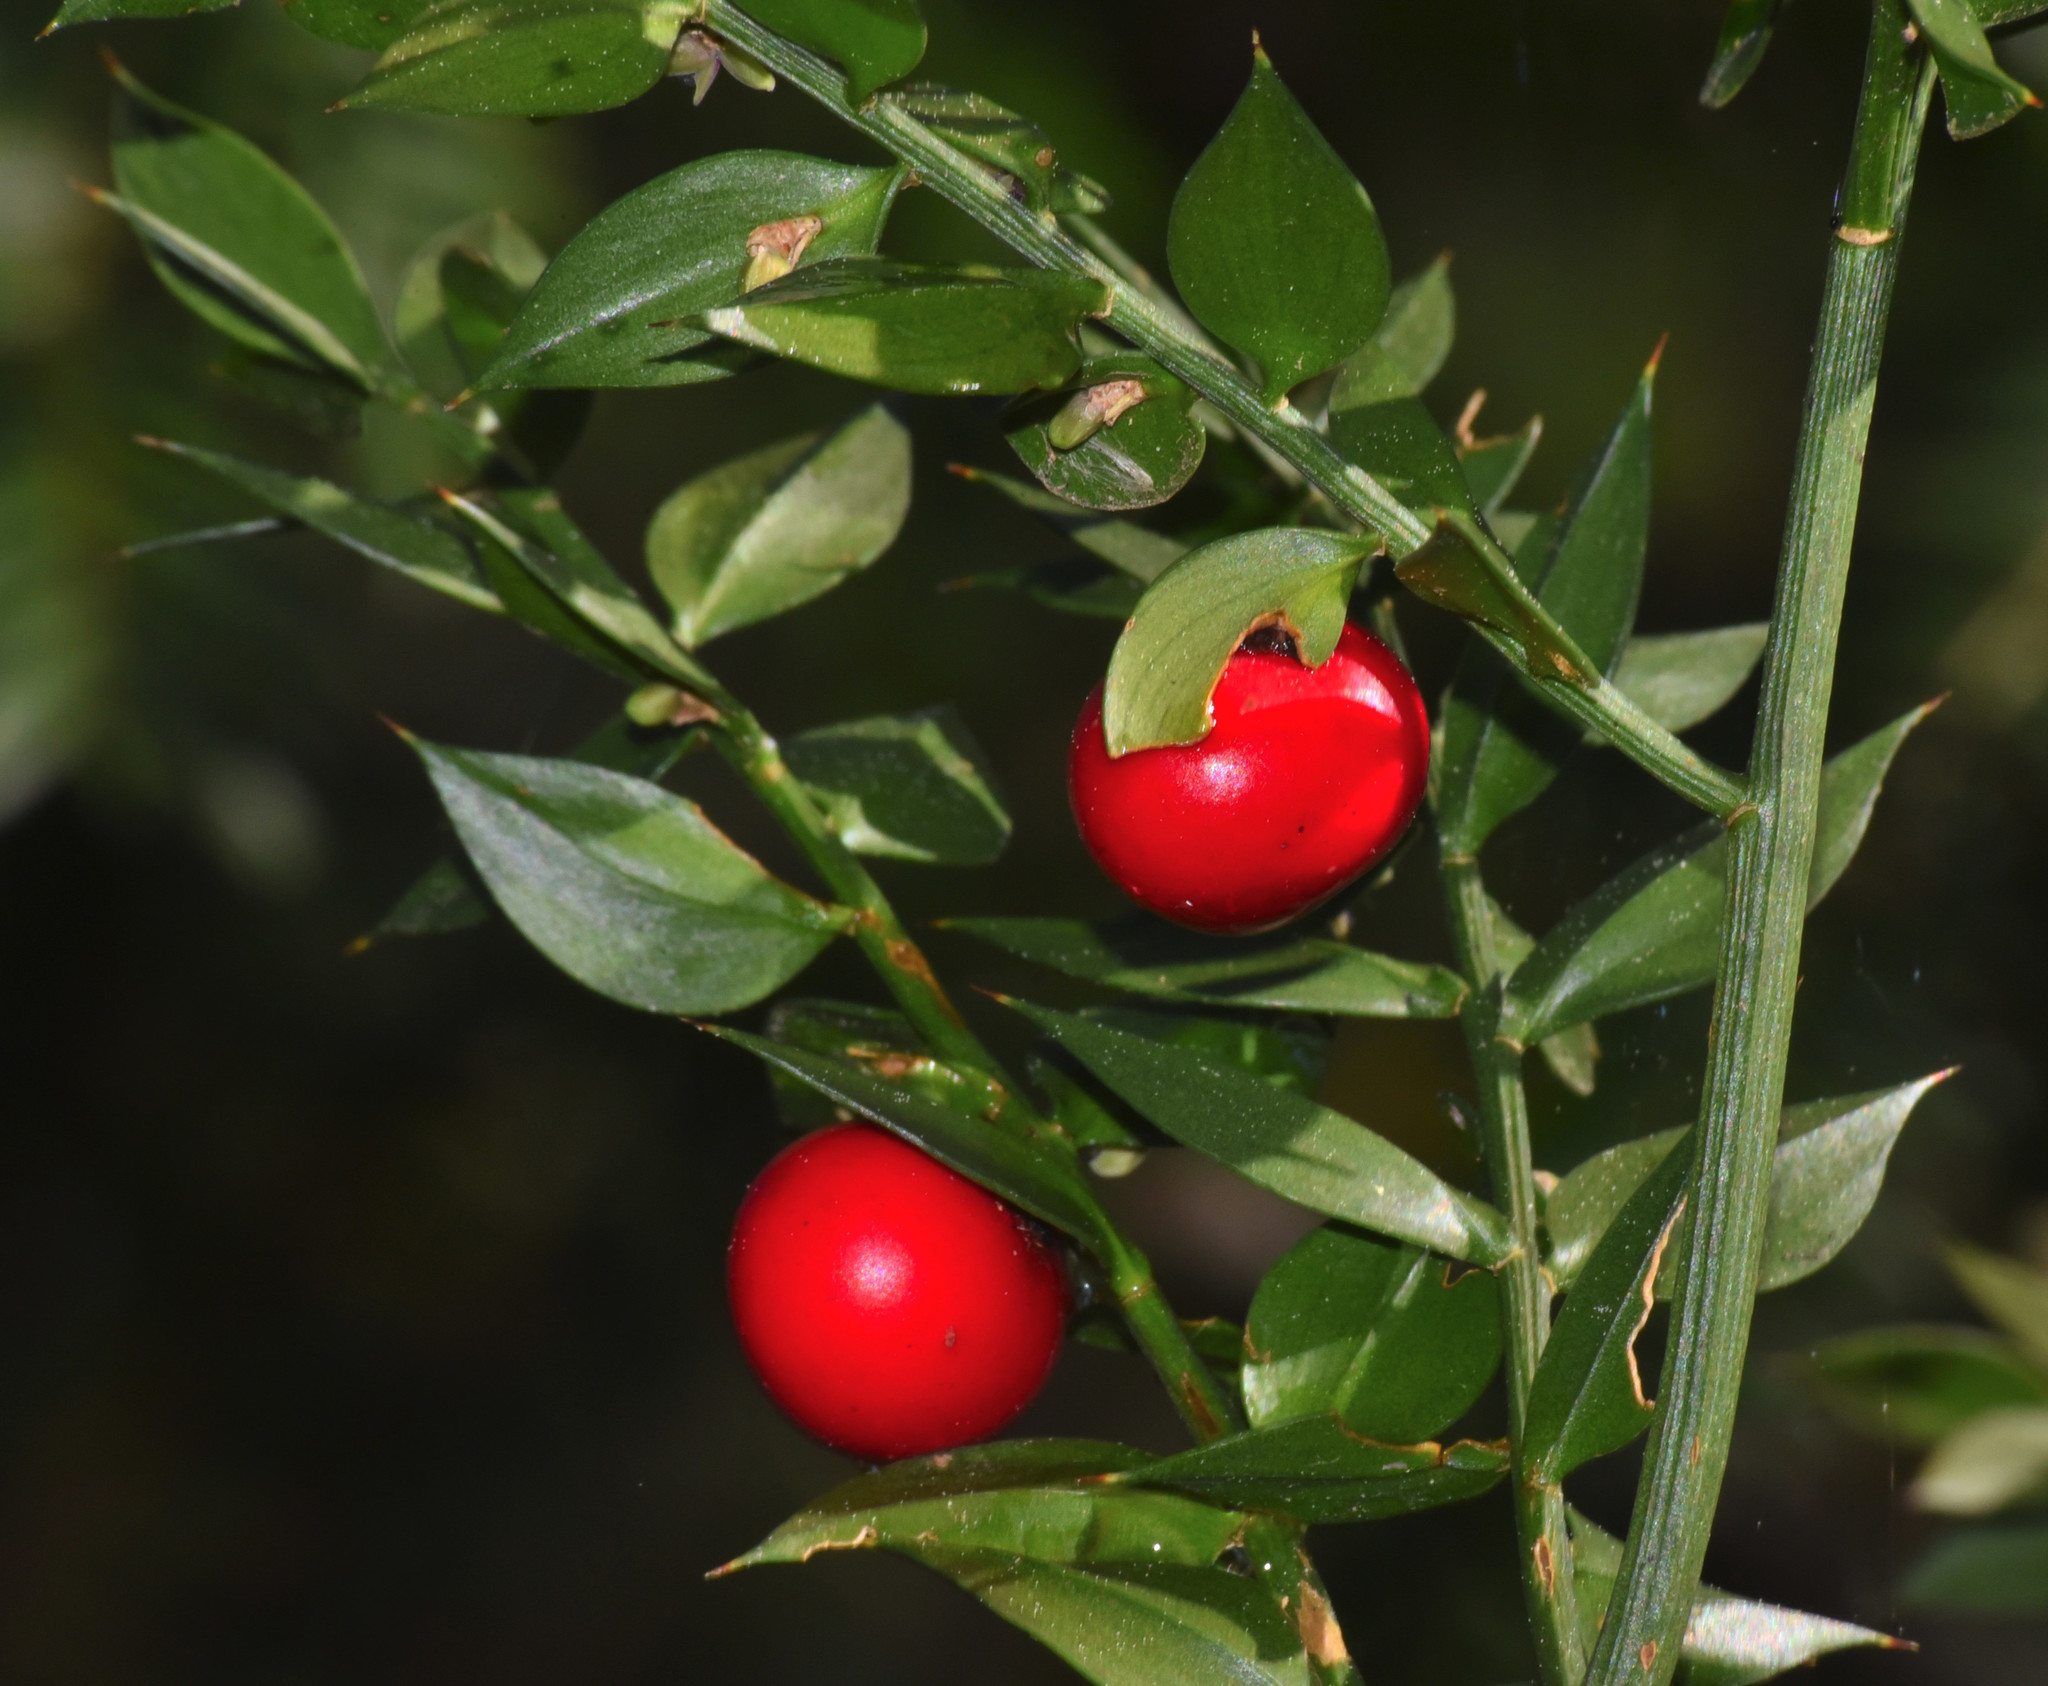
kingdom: Plantae
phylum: Tracheophyta
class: Liliopsida
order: Asparagales
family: Asparagaceae
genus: Ruscus
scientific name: Ruscus aculeatus
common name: Butcher's-broom
